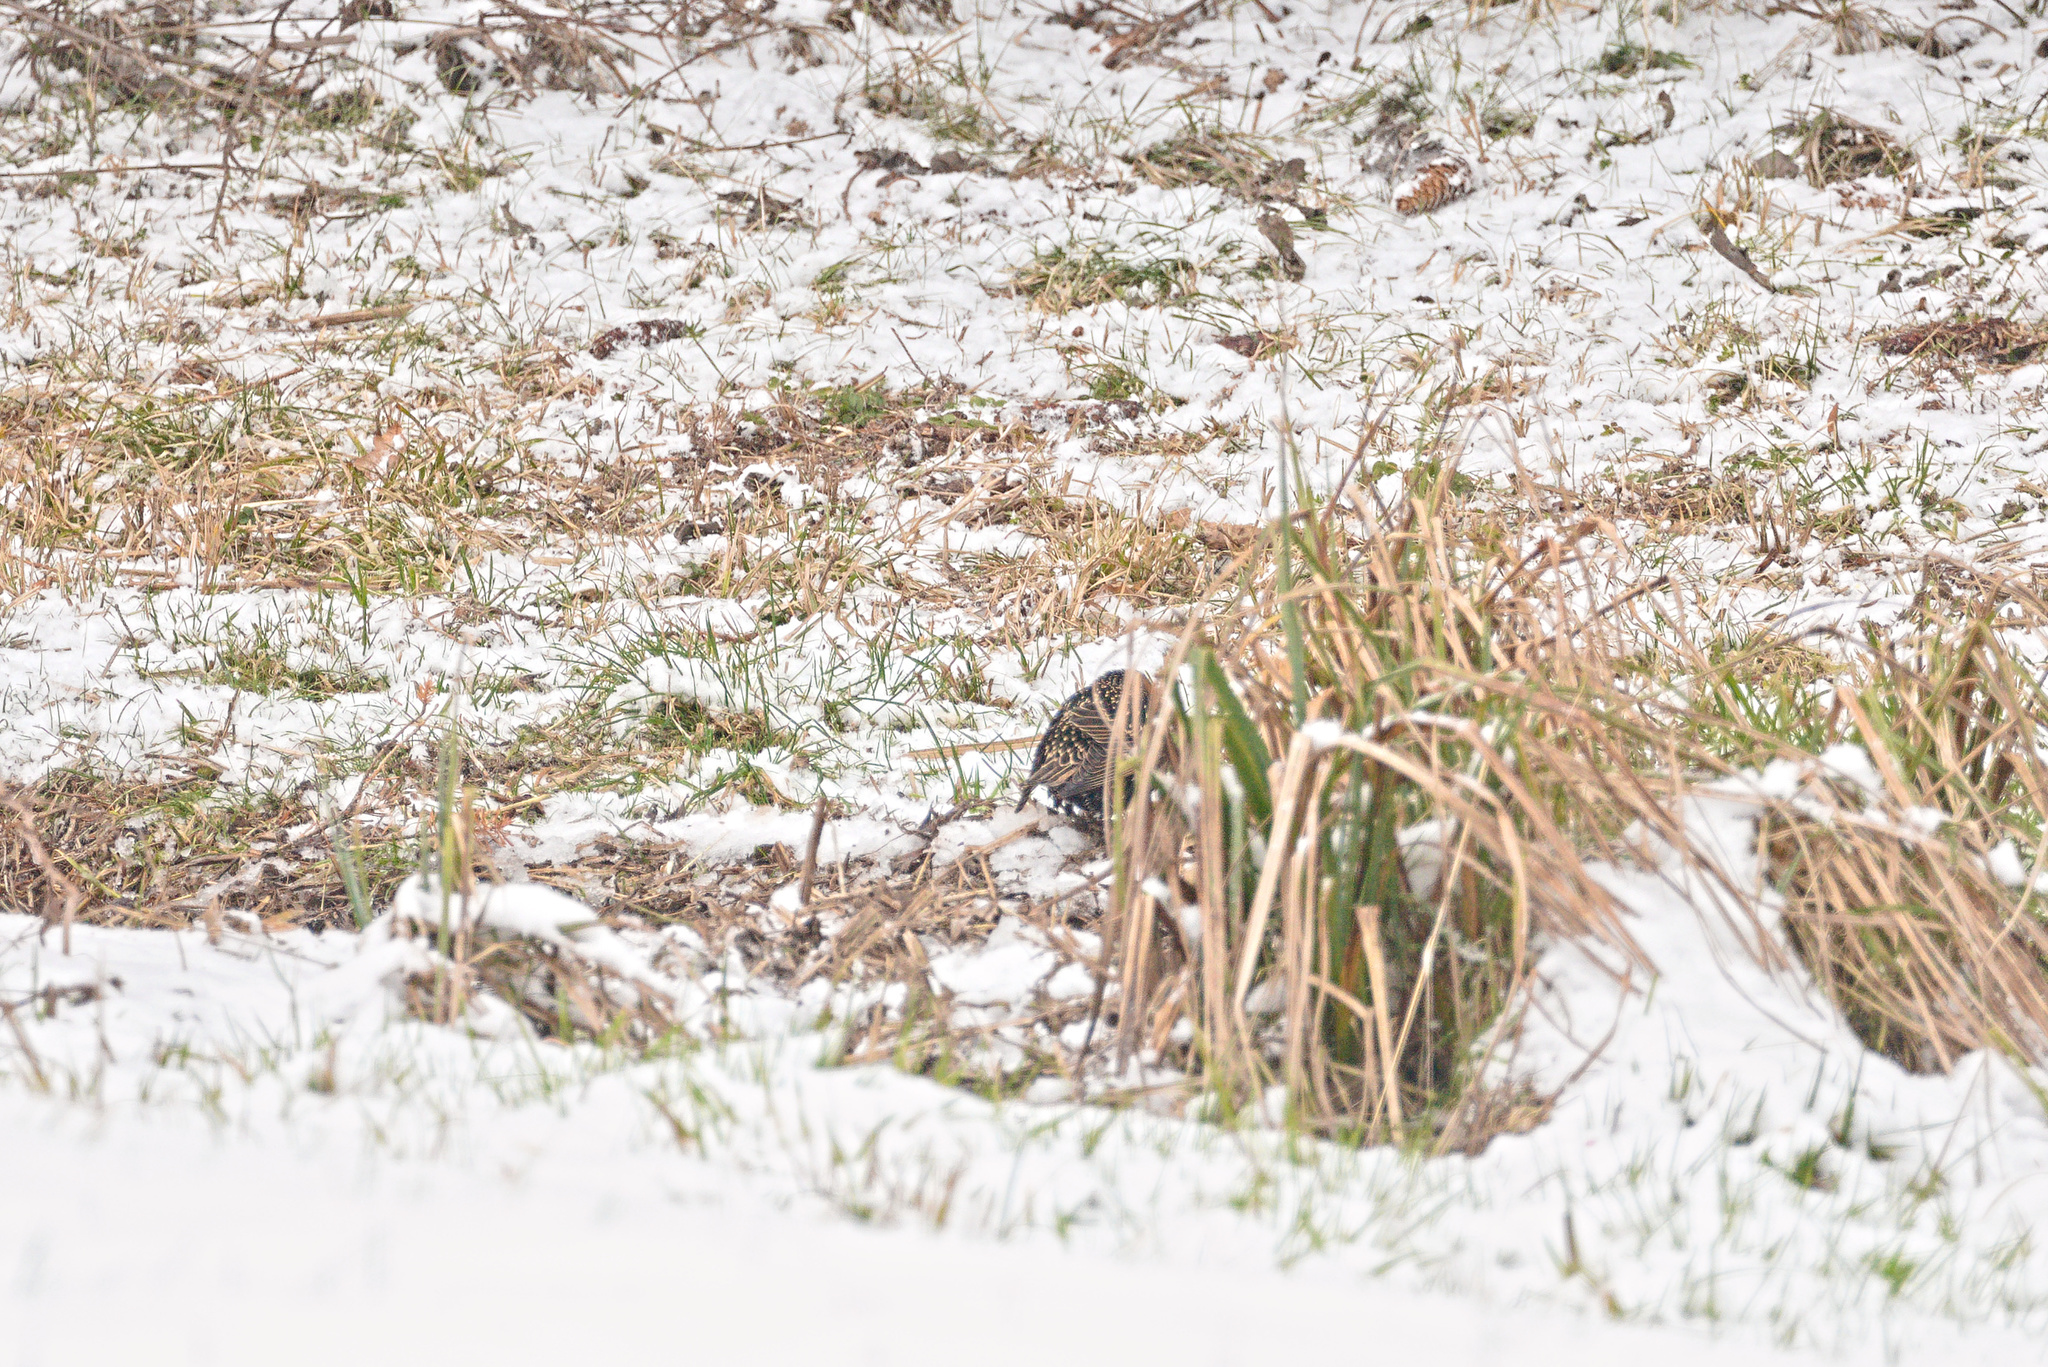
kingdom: Animalia
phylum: Chordata
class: Aves
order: Passeriformes
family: Sturnidae
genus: Sturnus
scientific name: Sturnus vulgaris
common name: Common starling
